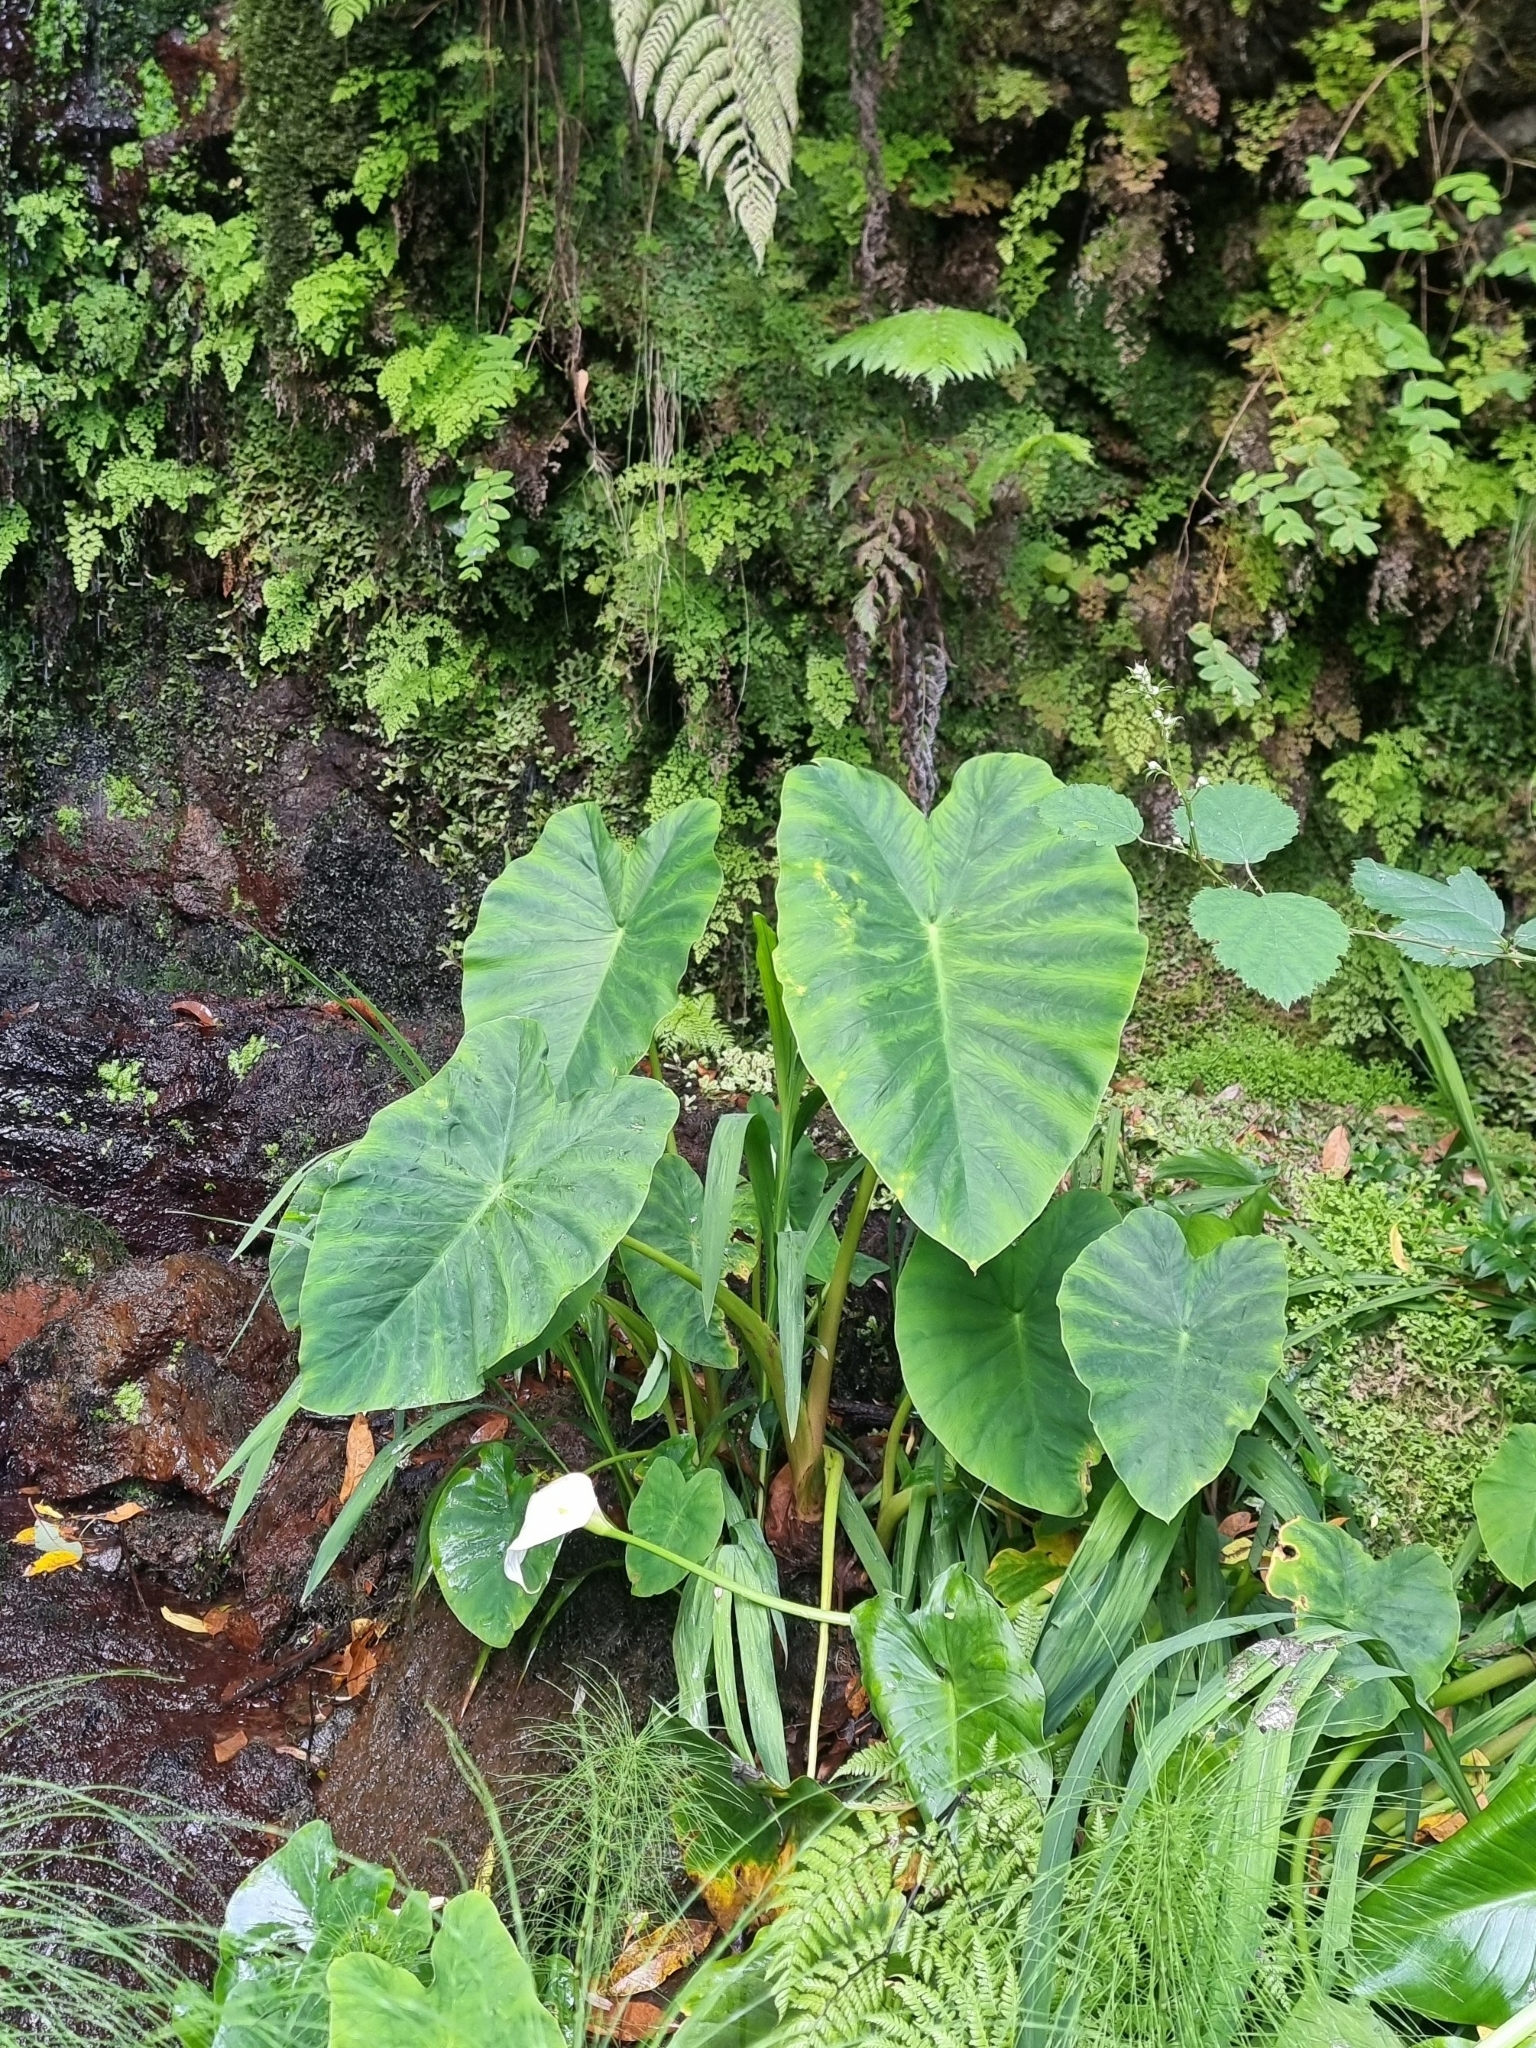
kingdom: Plantae
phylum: Tracheophyta
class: Liliopsida
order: Alismatales
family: Araceae
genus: Colocasia
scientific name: Colocasia esculenta
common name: Taro
